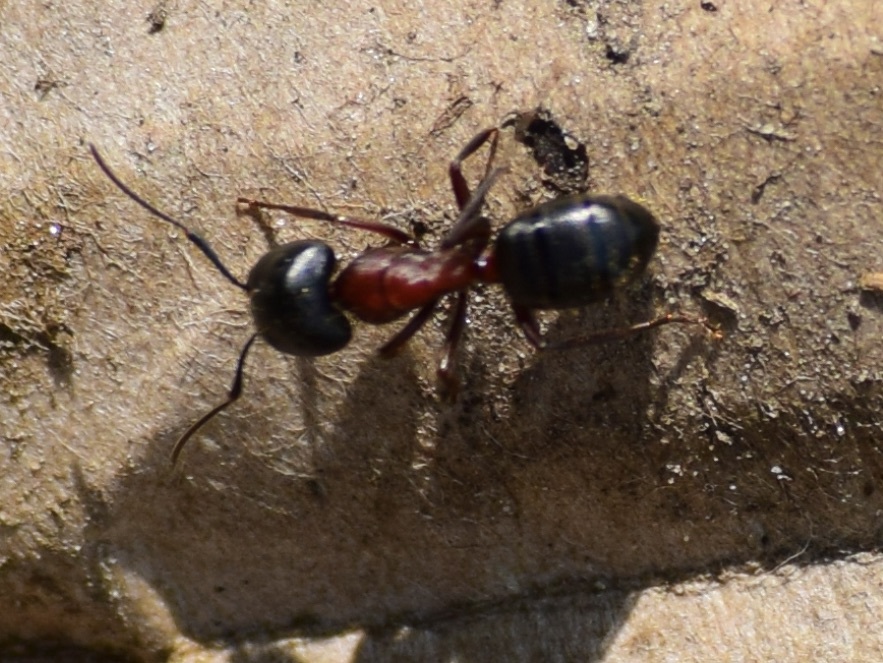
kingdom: Animalia
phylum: Arthropoda
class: Insecta
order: Hymenoptera
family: Formicidae
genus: Camponotus
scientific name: Camponotus novaeboracensis
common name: New york carpenter ant
